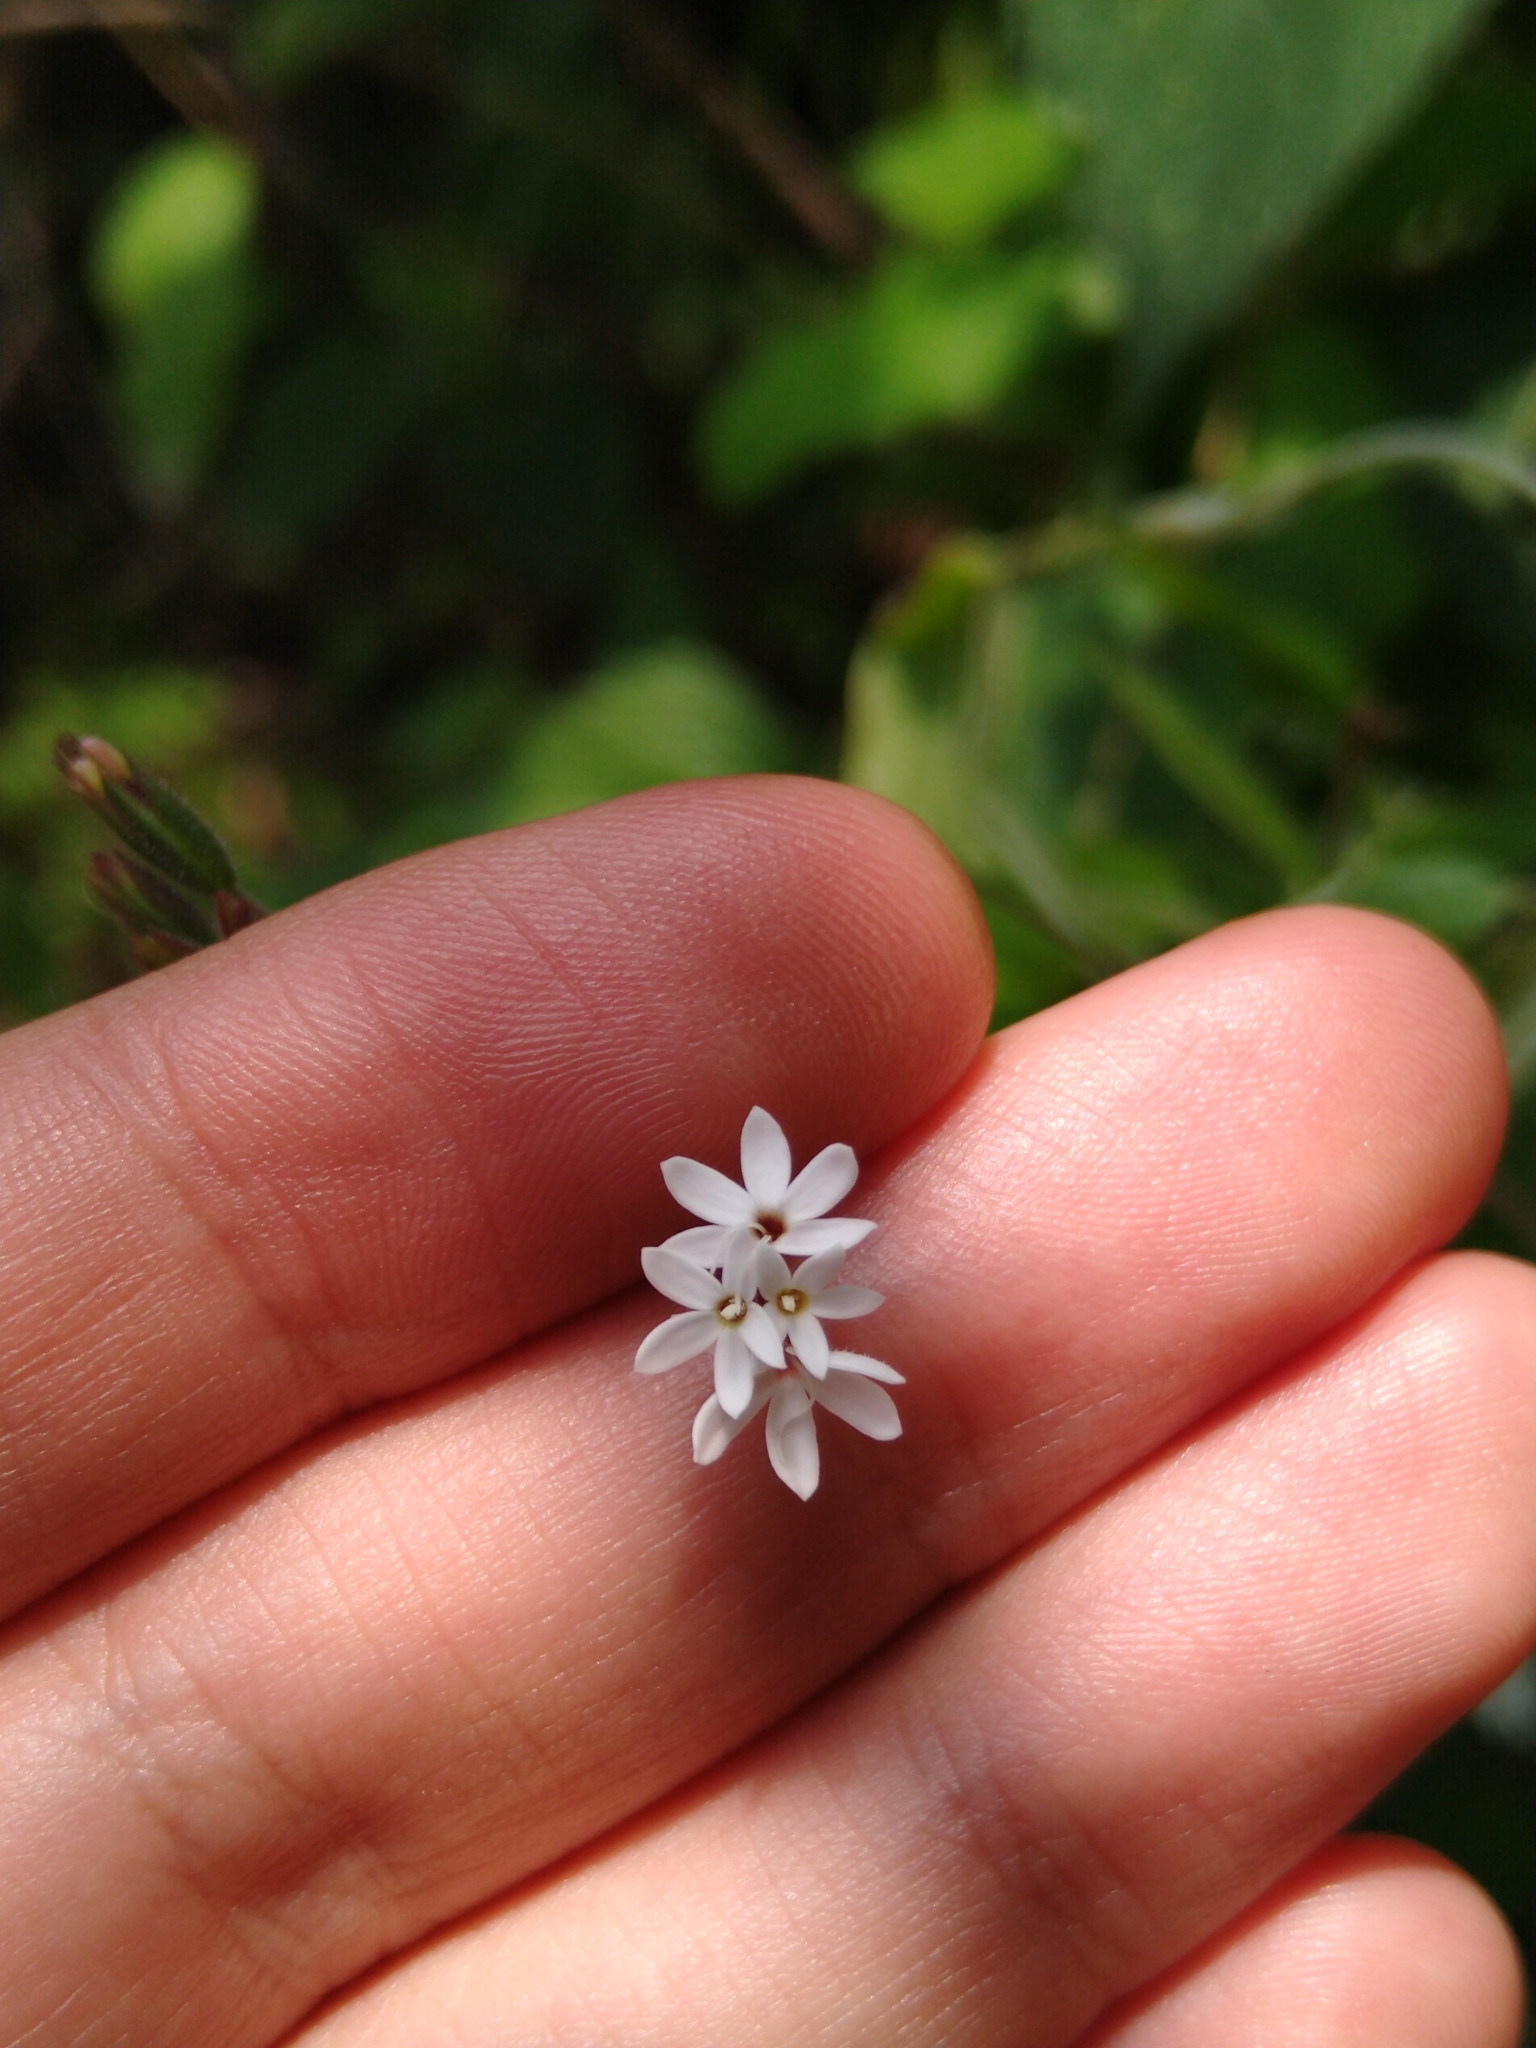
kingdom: Plantae
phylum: Tracheophyta
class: Magnoliopsida
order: Asterales
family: Asteraceae
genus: Stevia
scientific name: Stevia elatior
